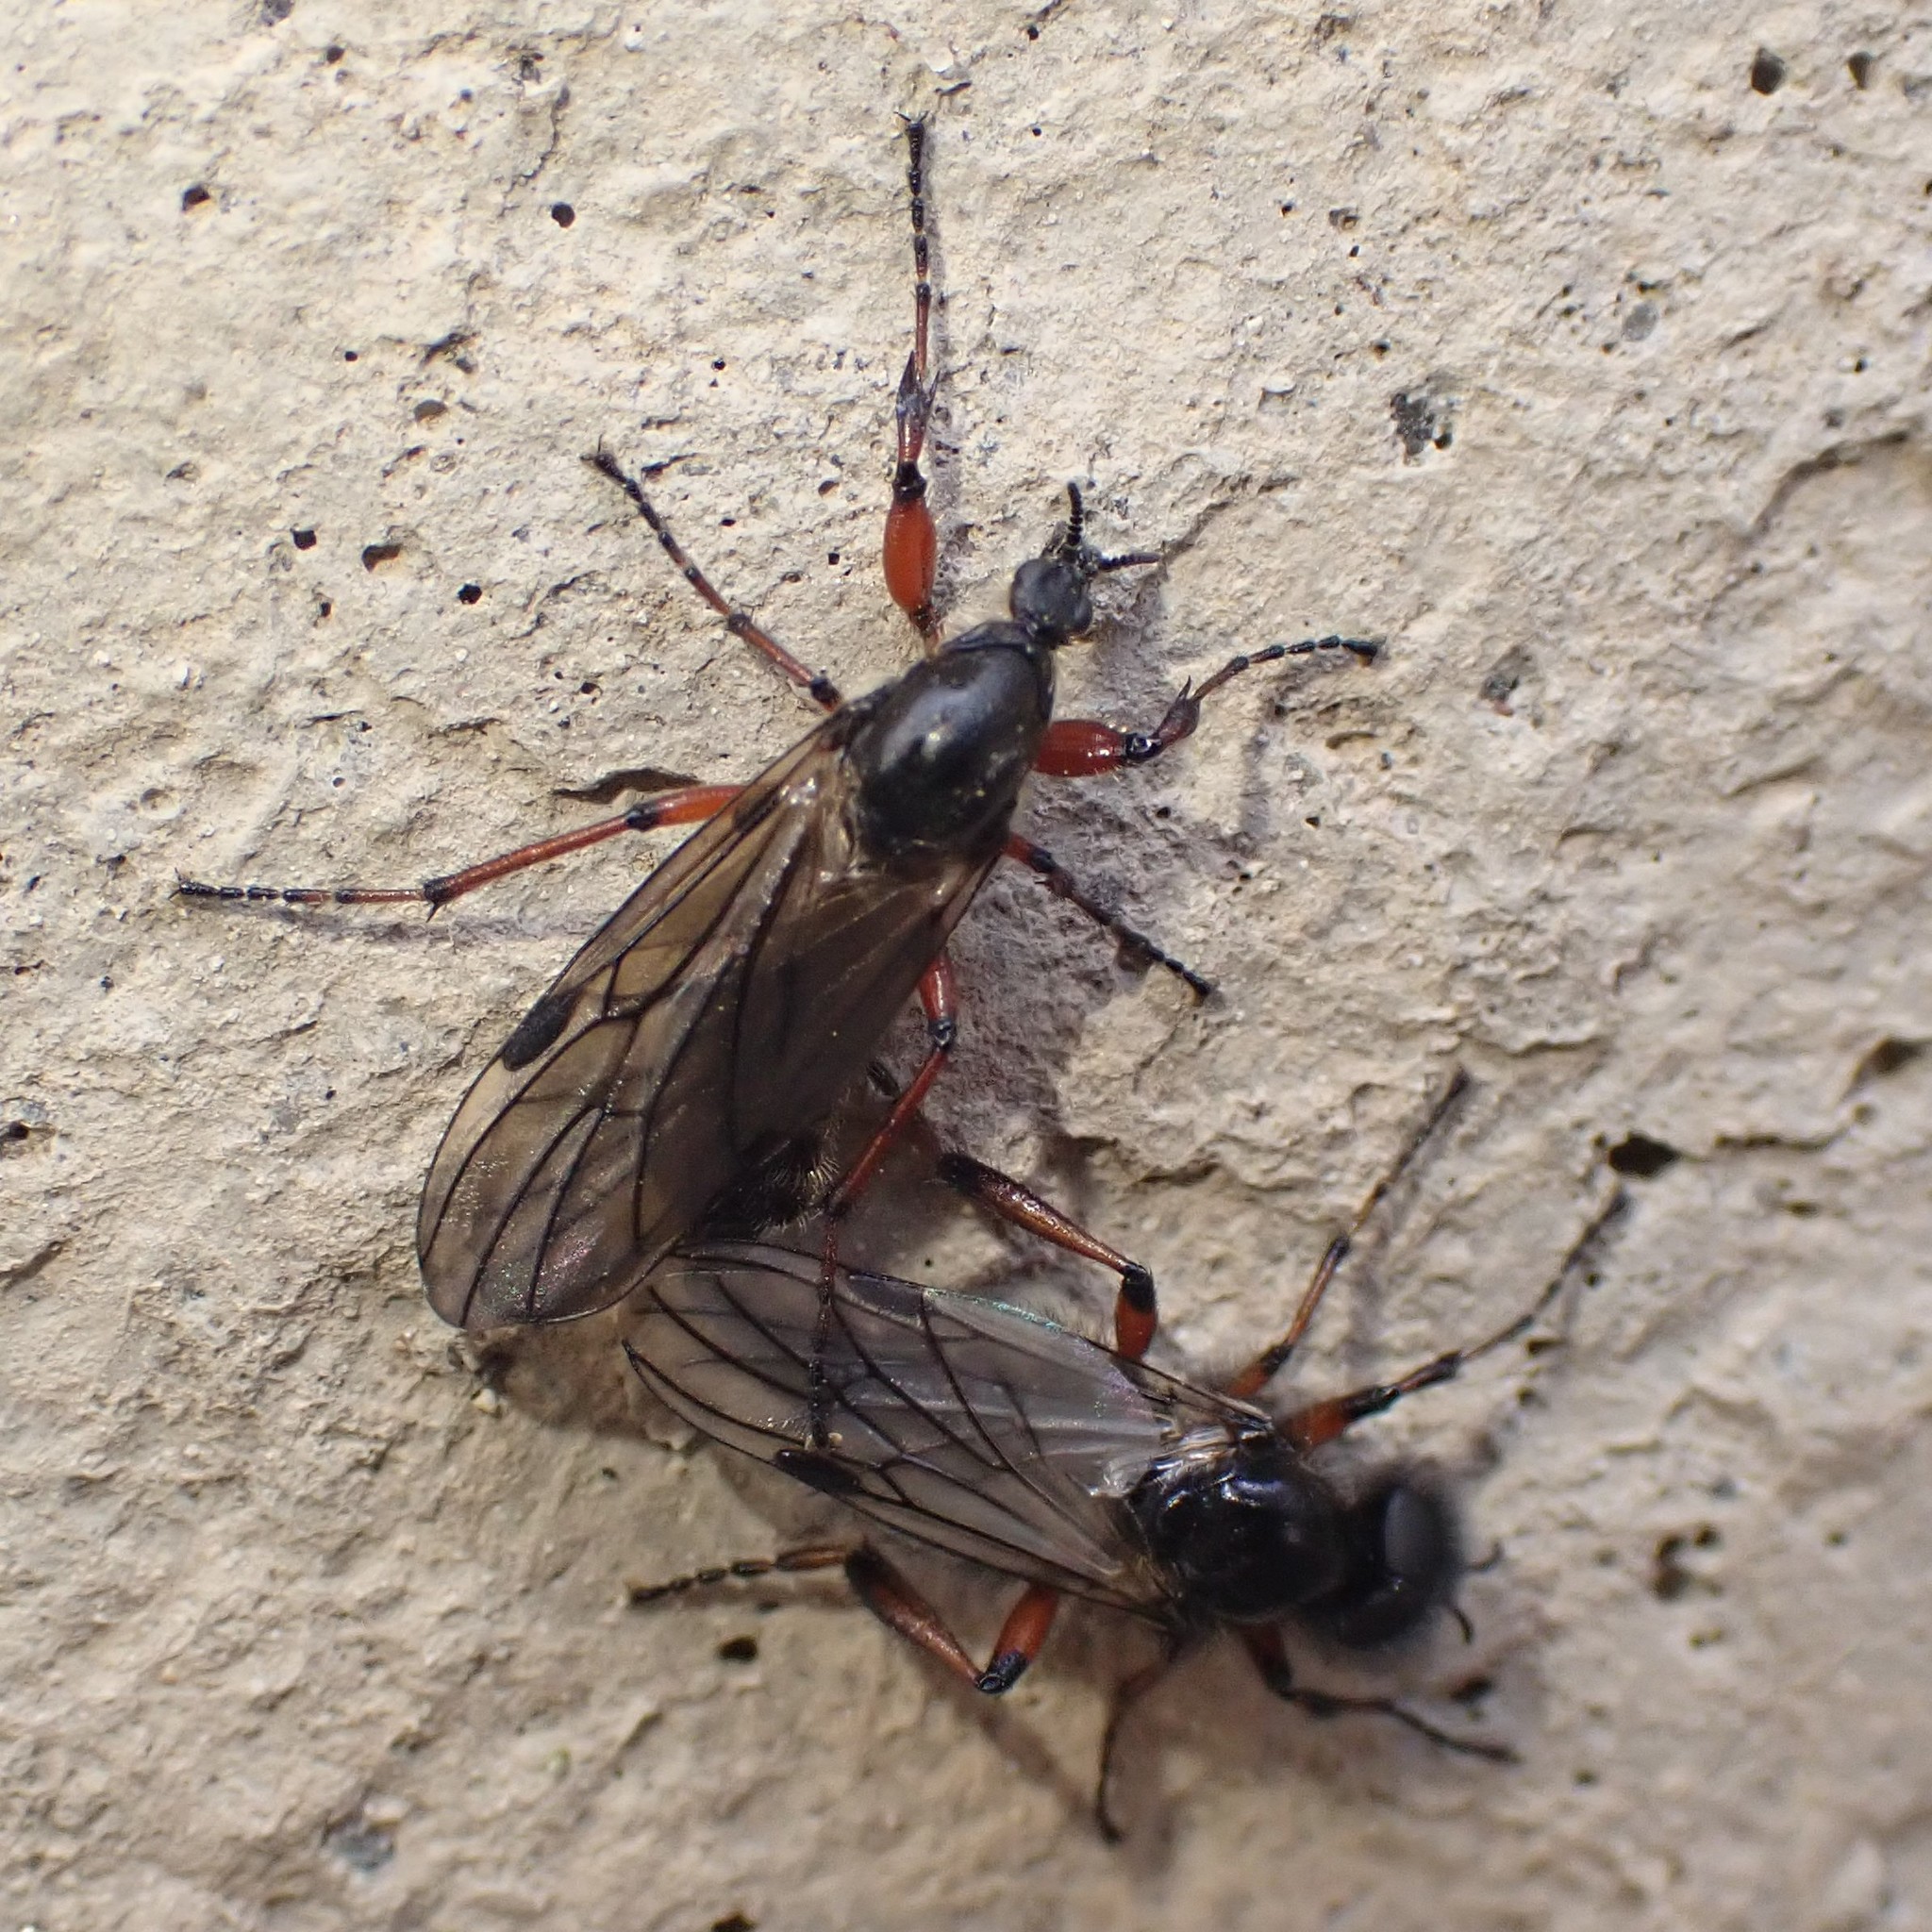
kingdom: Animalia
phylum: Arthropoda
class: Insecta
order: Diptera
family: Bibionidae
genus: Bibio
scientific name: Bibio
